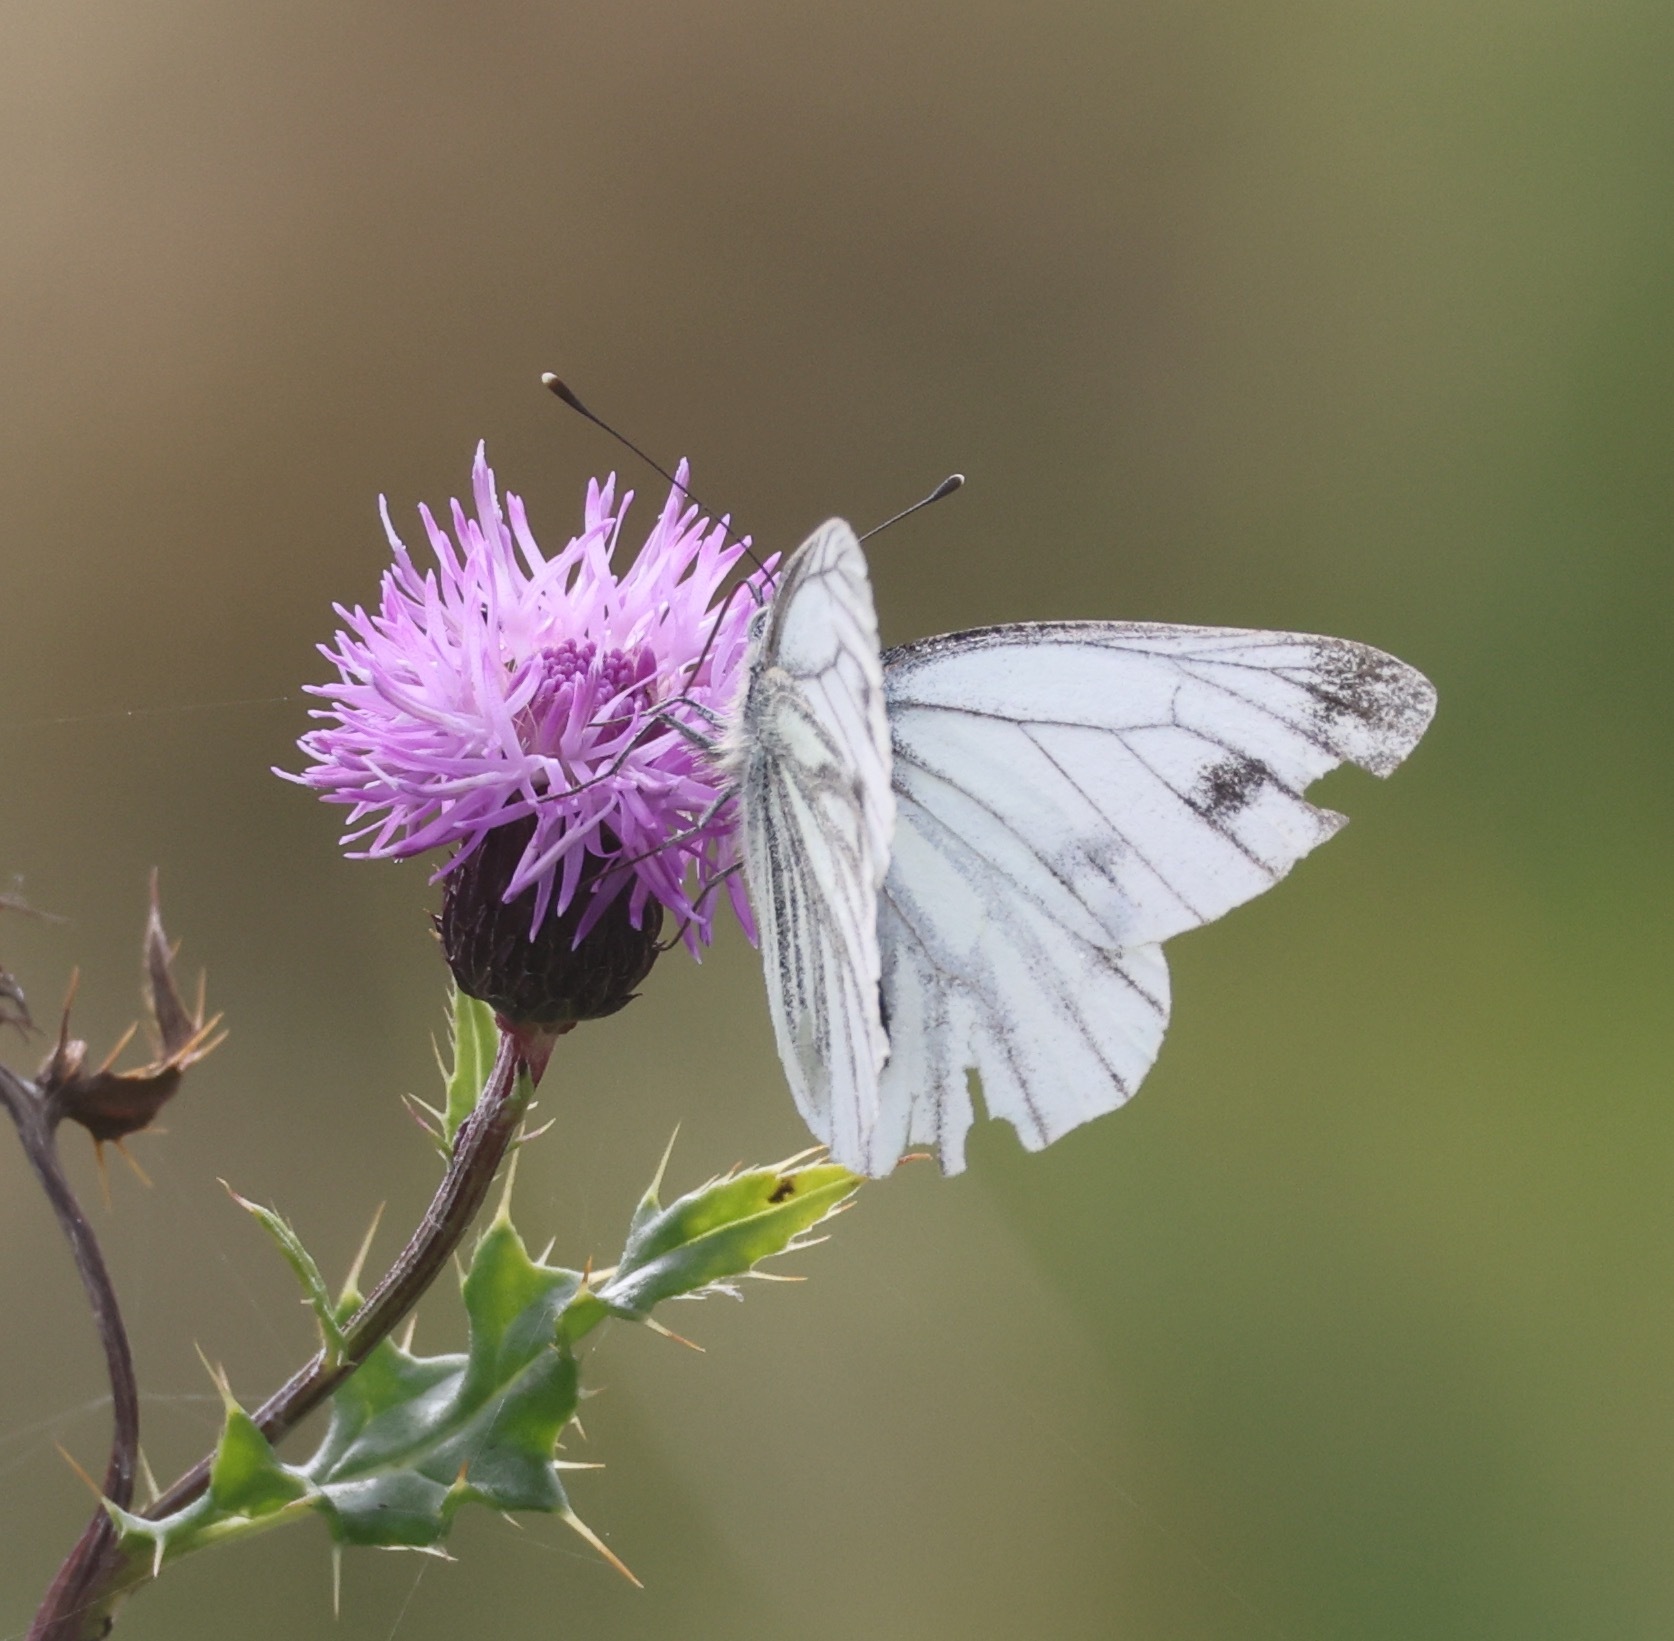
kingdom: Animalia
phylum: Arthropoda
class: Insecta
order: Lepidoptera
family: Pieridae
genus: Pieris
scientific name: Pieris napi
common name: Green-veined white
